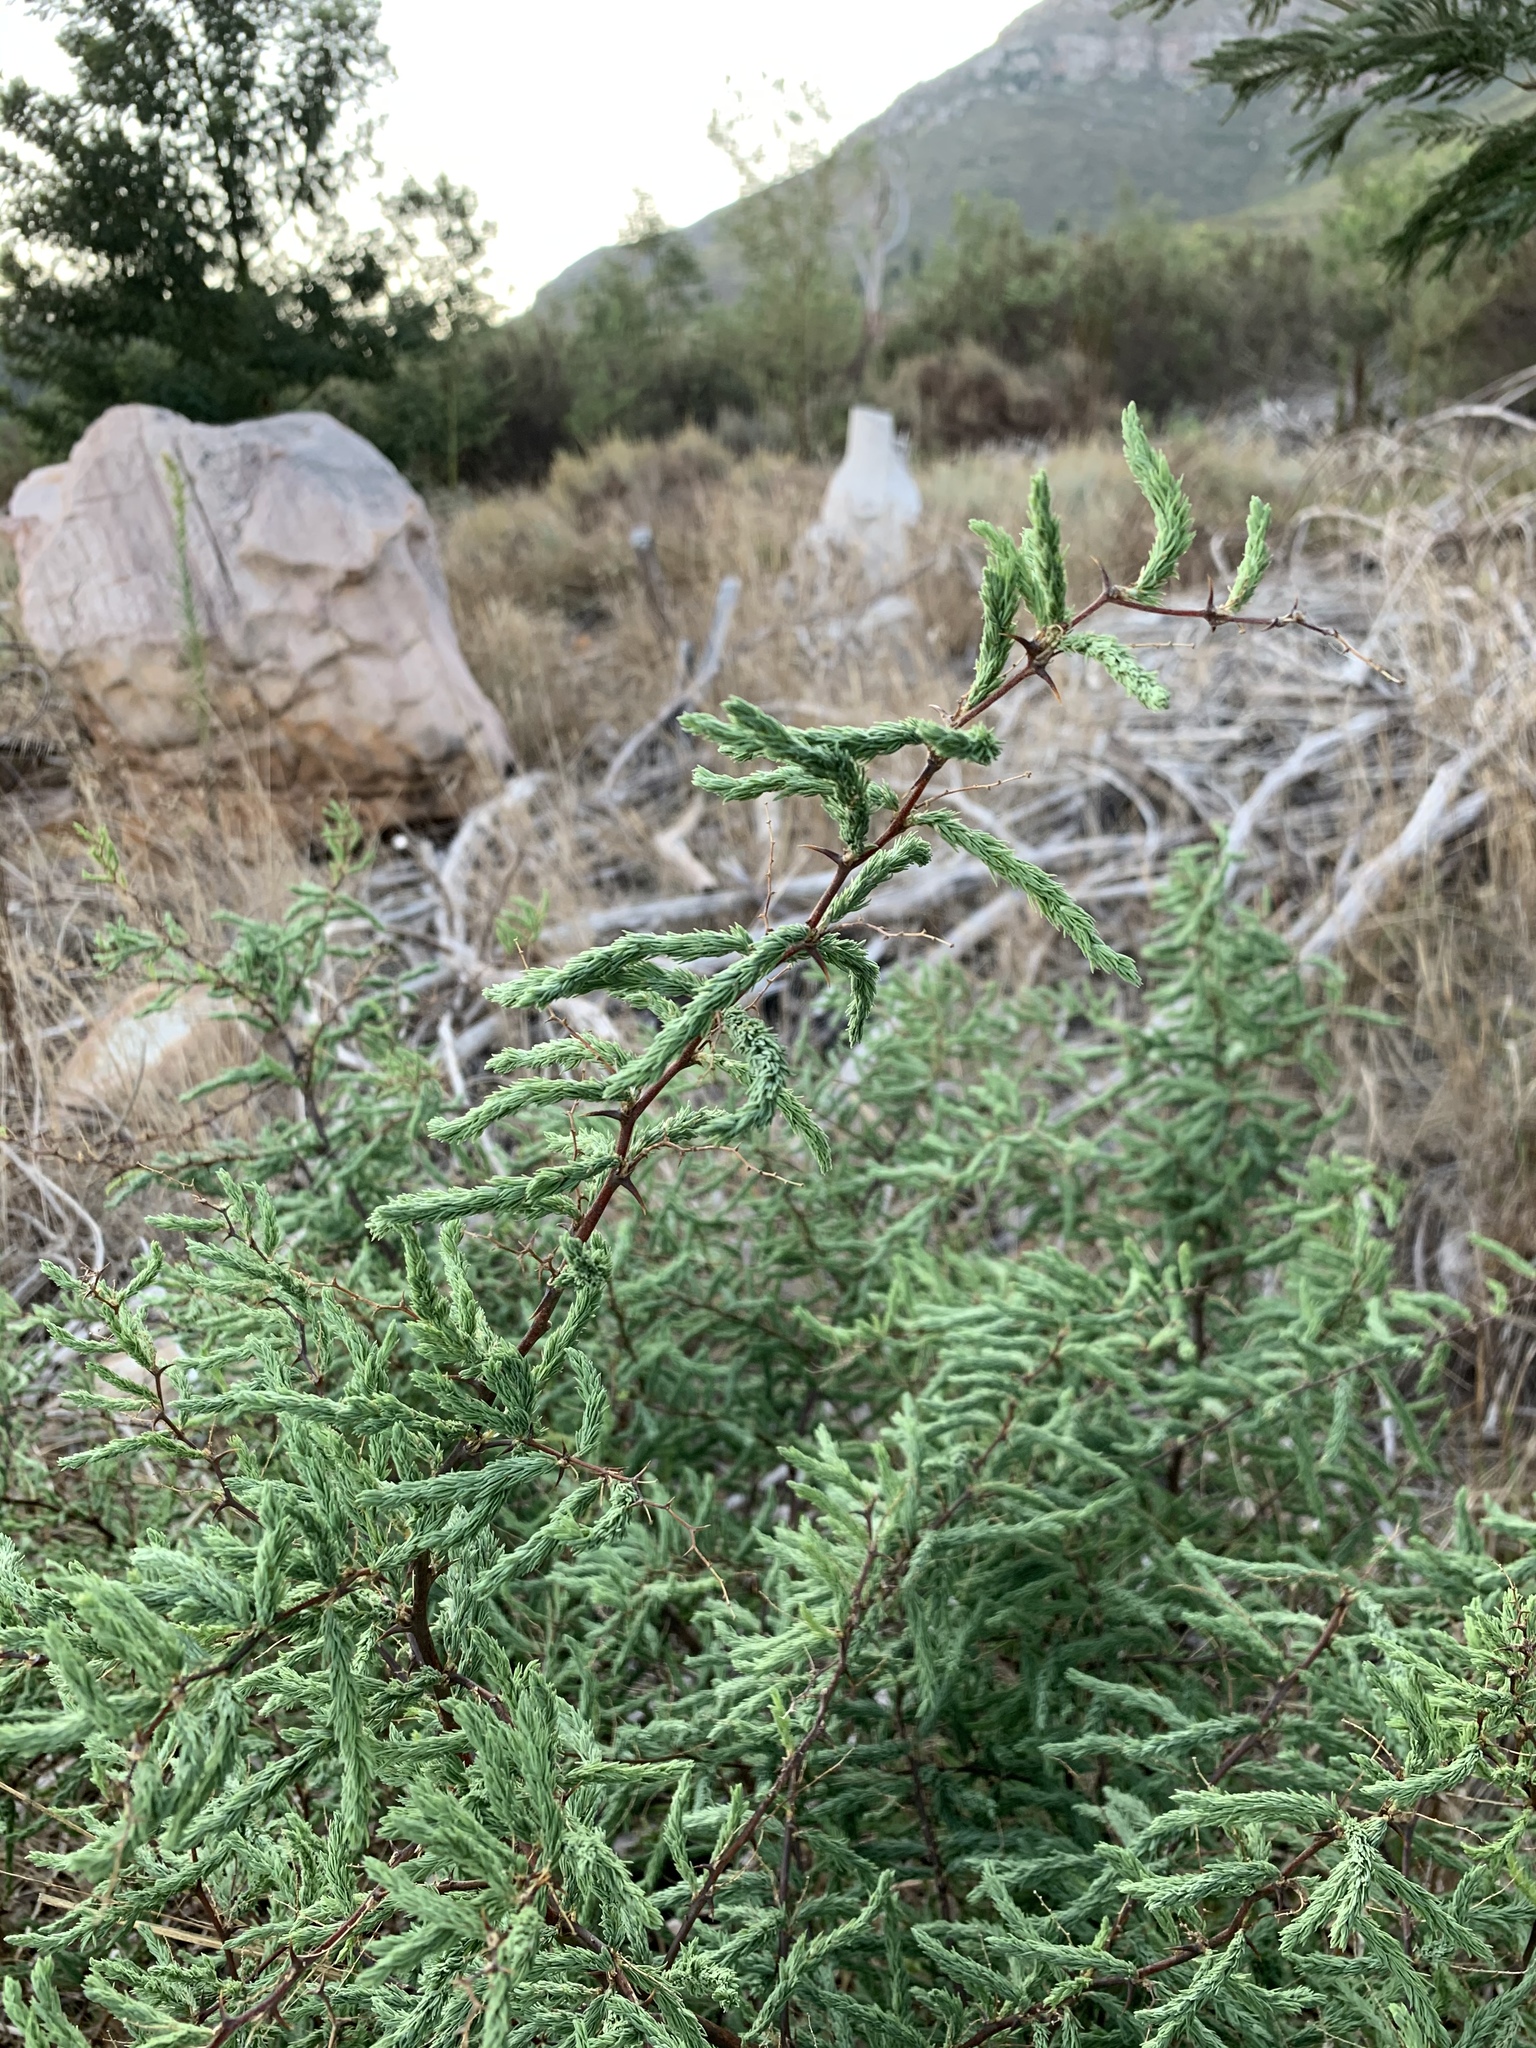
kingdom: Plantae
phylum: Tracheophyta
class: Liliopsida
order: Asparagales
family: Asparagaceae
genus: Asparagus
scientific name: Asparagus rubicundus
